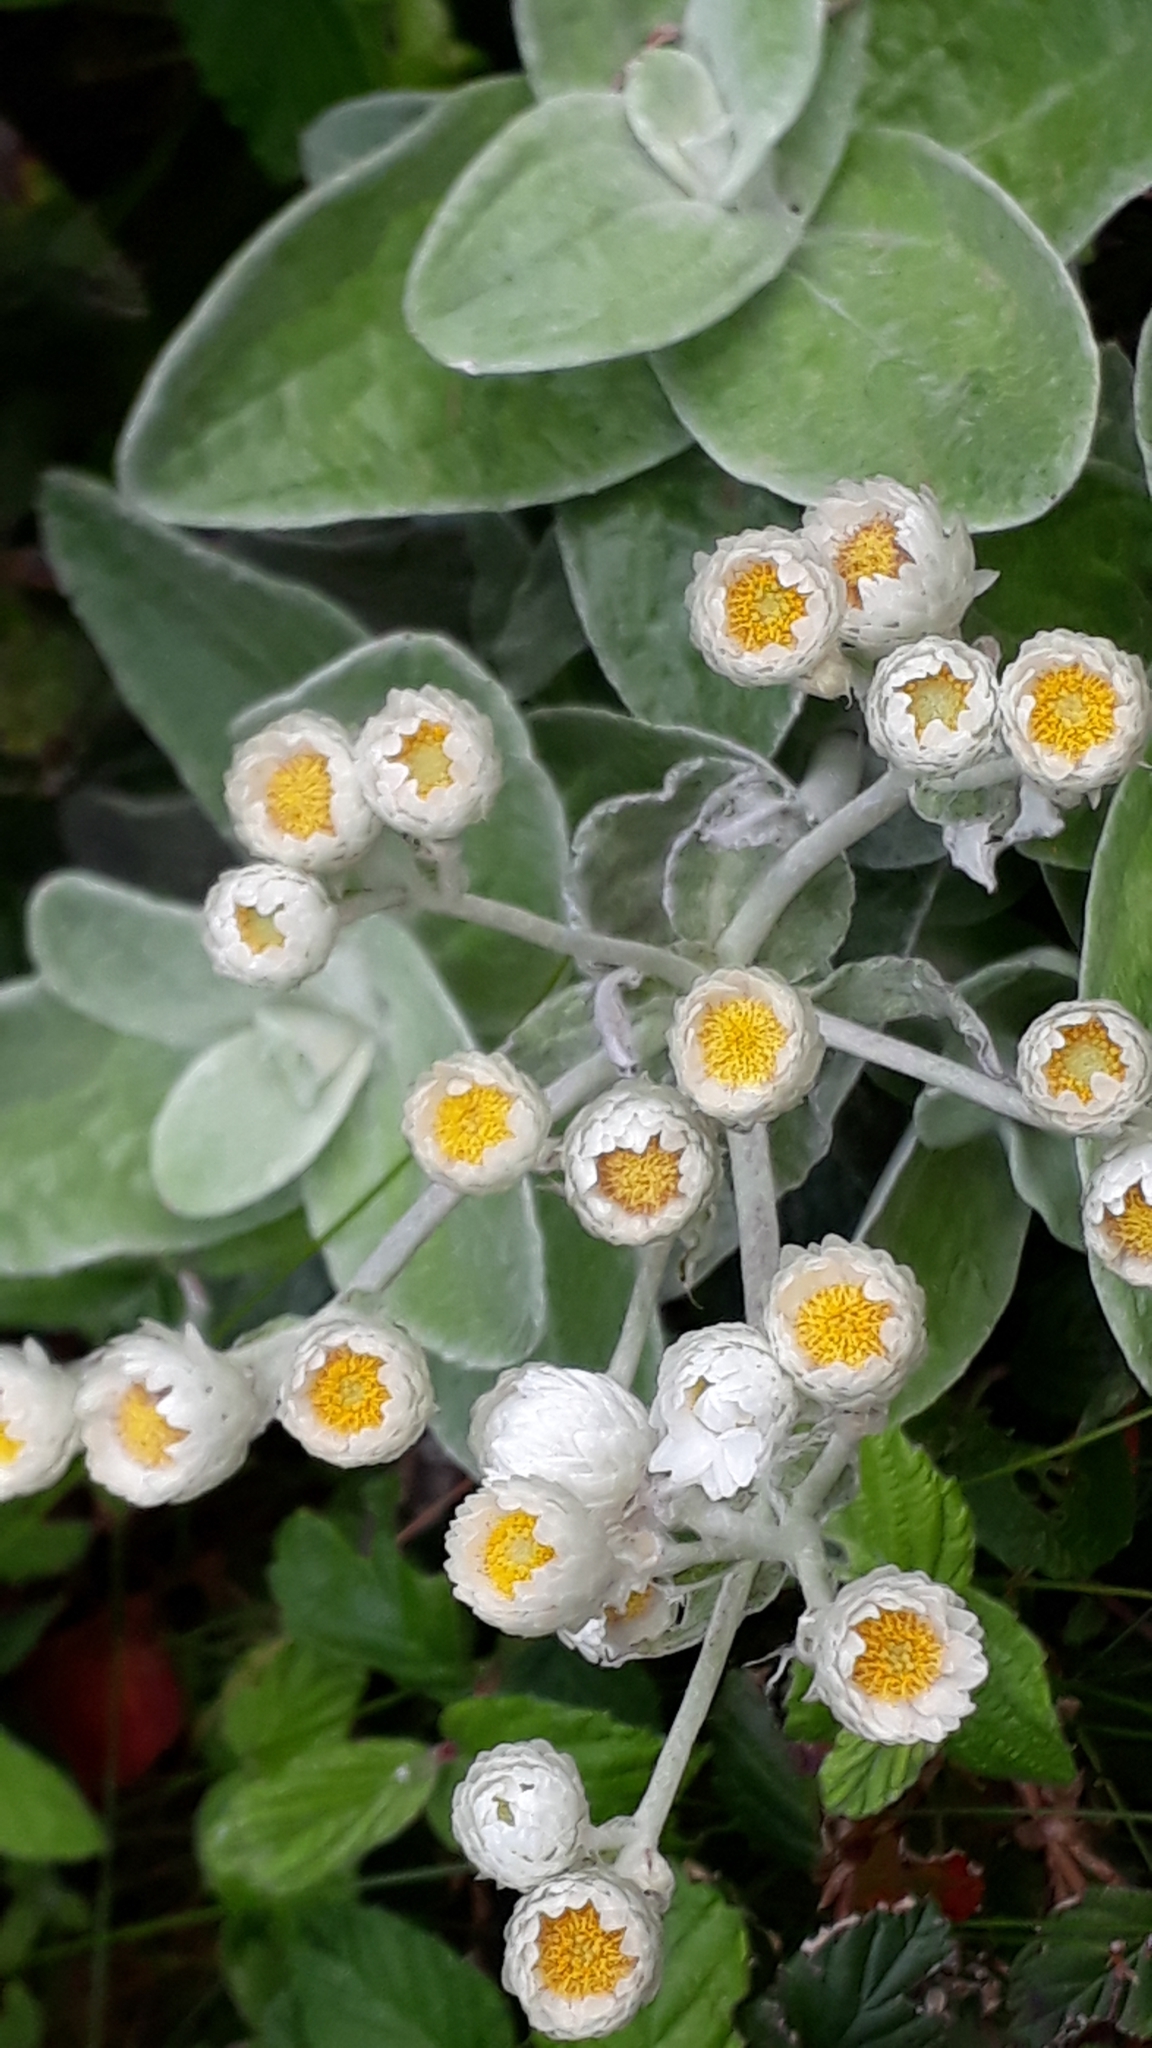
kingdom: Plantae
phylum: Tracheophyta
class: Magnoliopsida
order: Asterales
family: Asteraceae
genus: Helichrysum
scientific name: Helichrysum grandiflorum
